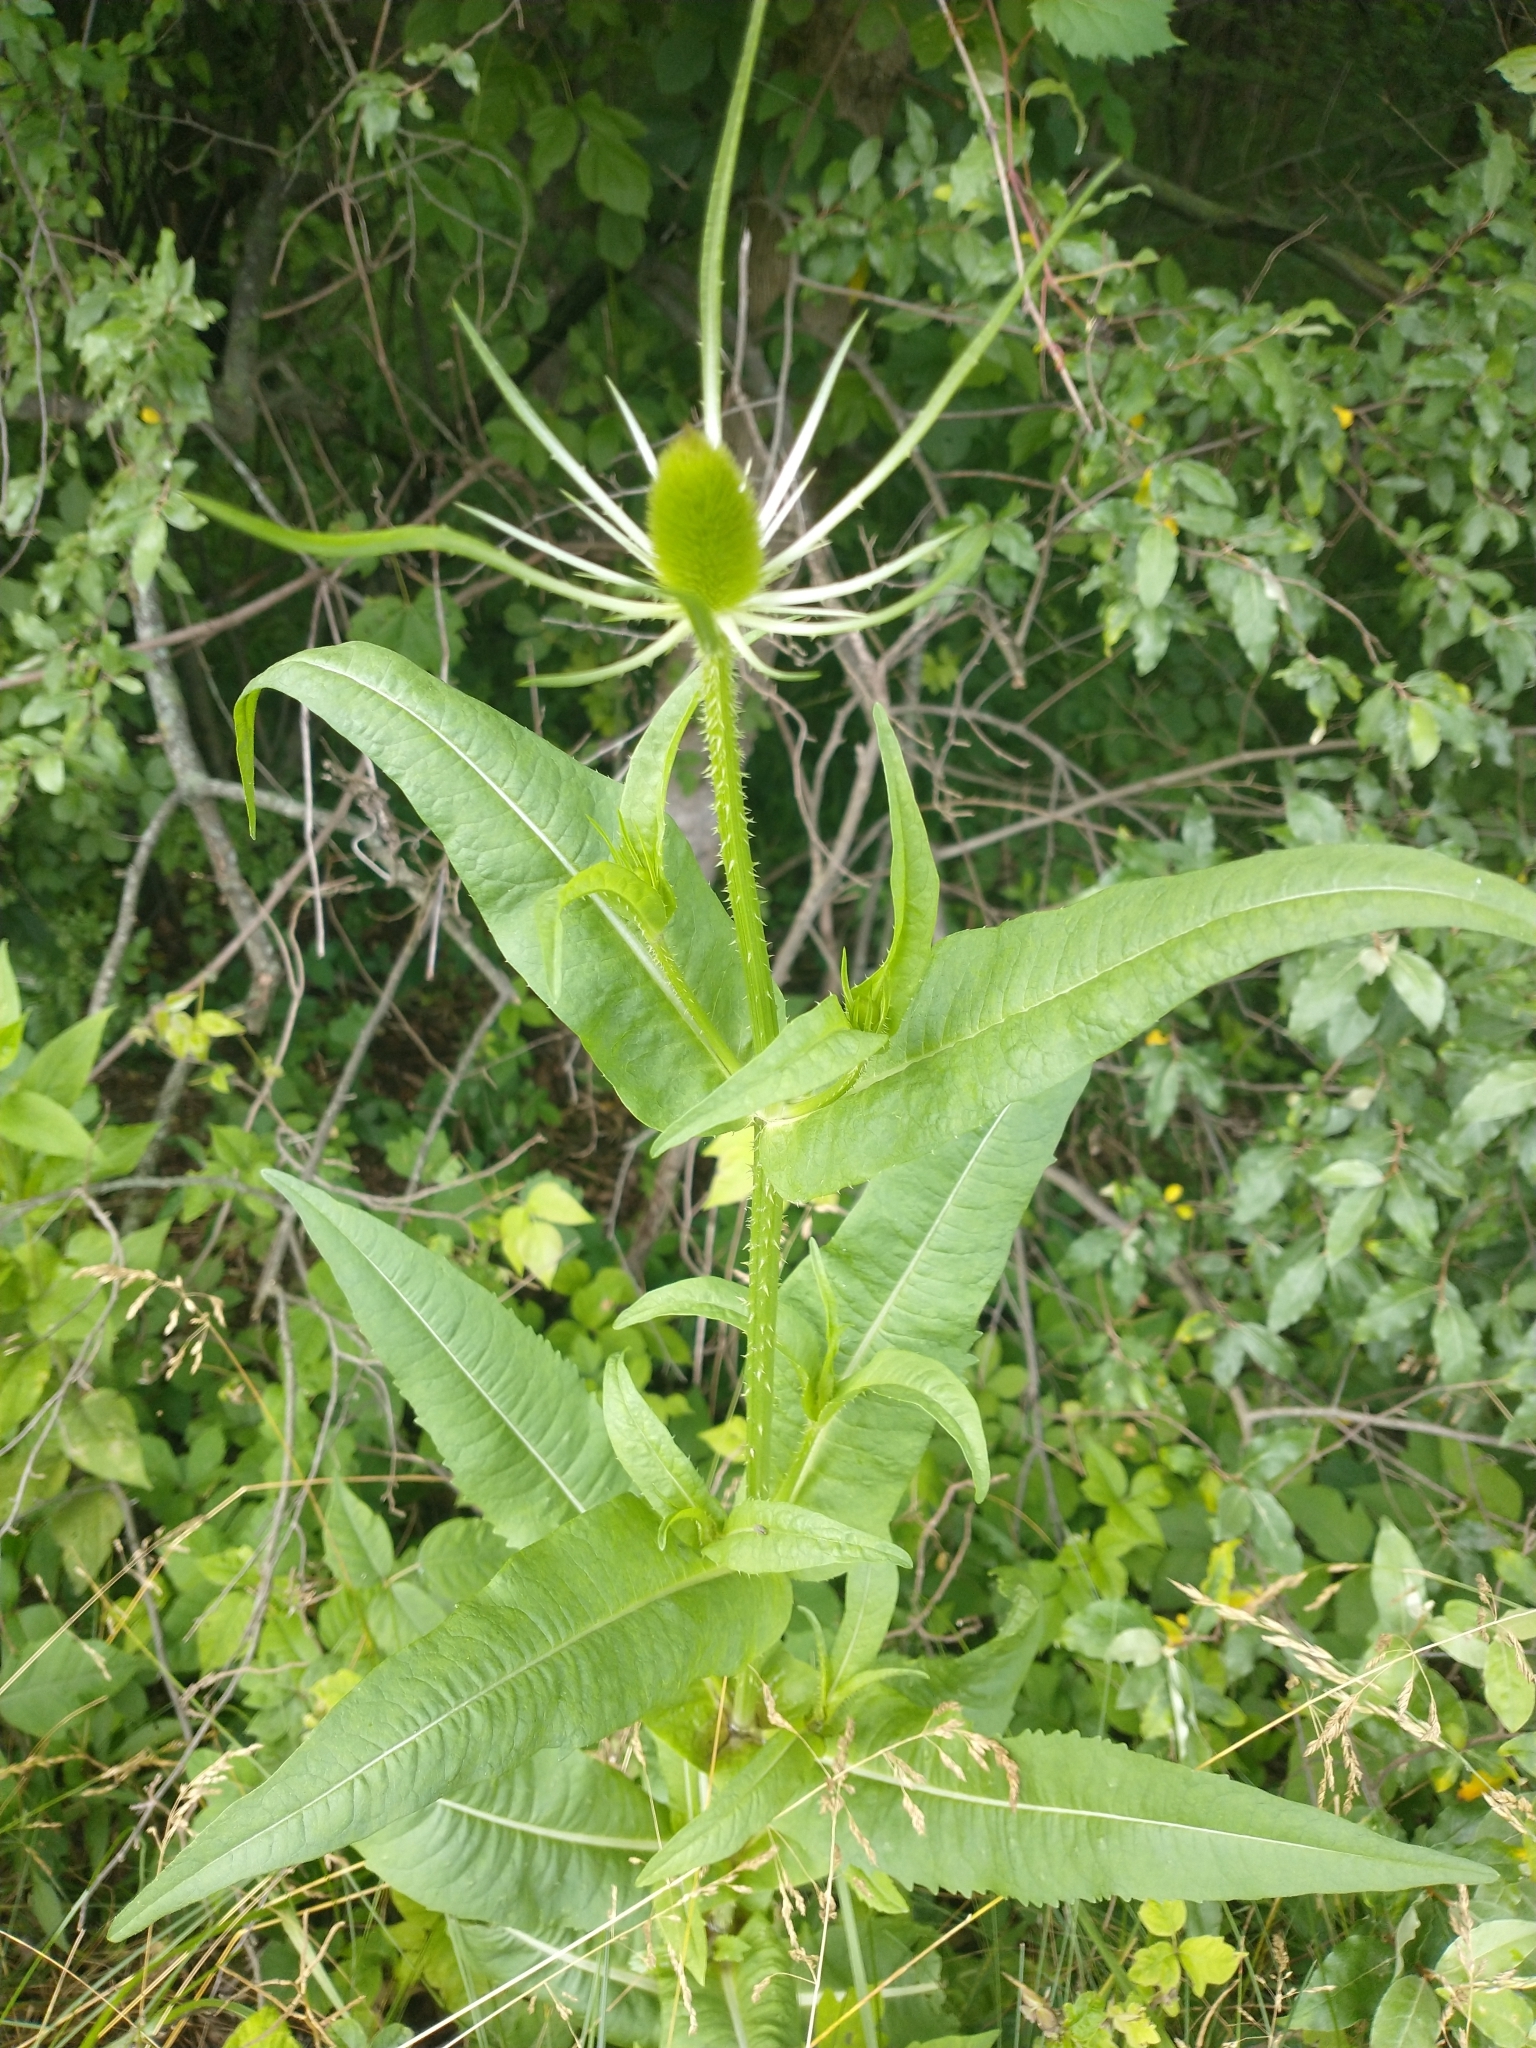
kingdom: Plantae
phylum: Tracheophyta
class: Magnoliopsida
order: Dipsacales
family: Caprifoliaceae
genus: Dipsacus
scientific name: Dipsacus fullonum
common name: Teasel
